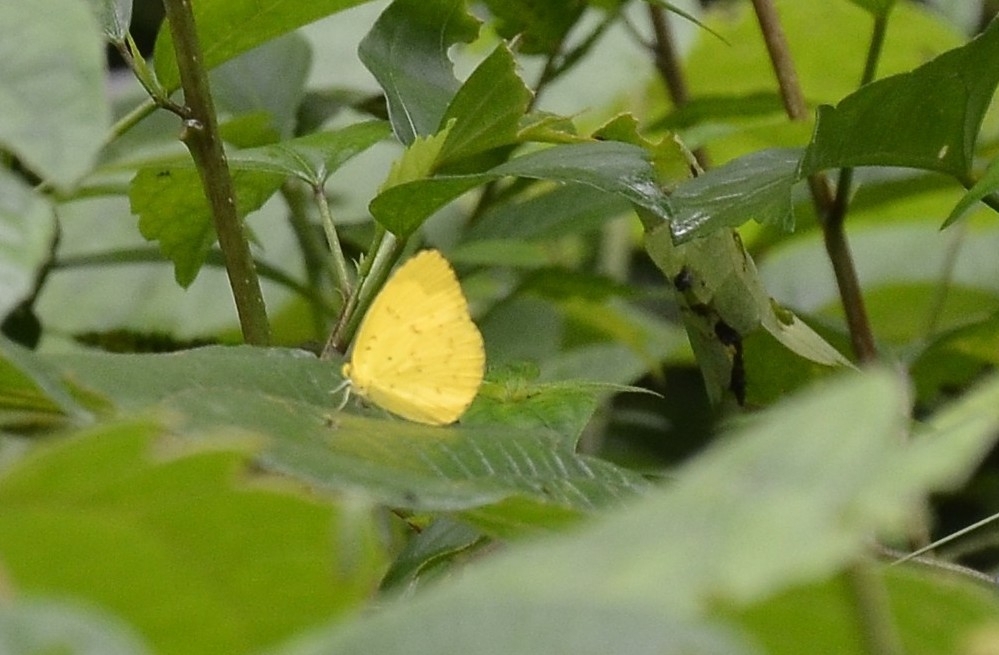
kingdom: Animalia
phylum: Arthropoda
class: Insecta
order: Lepidoptera
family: Pieridae
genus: Eurema
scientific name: Eurema blanda
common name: Three-spot grass yellow
